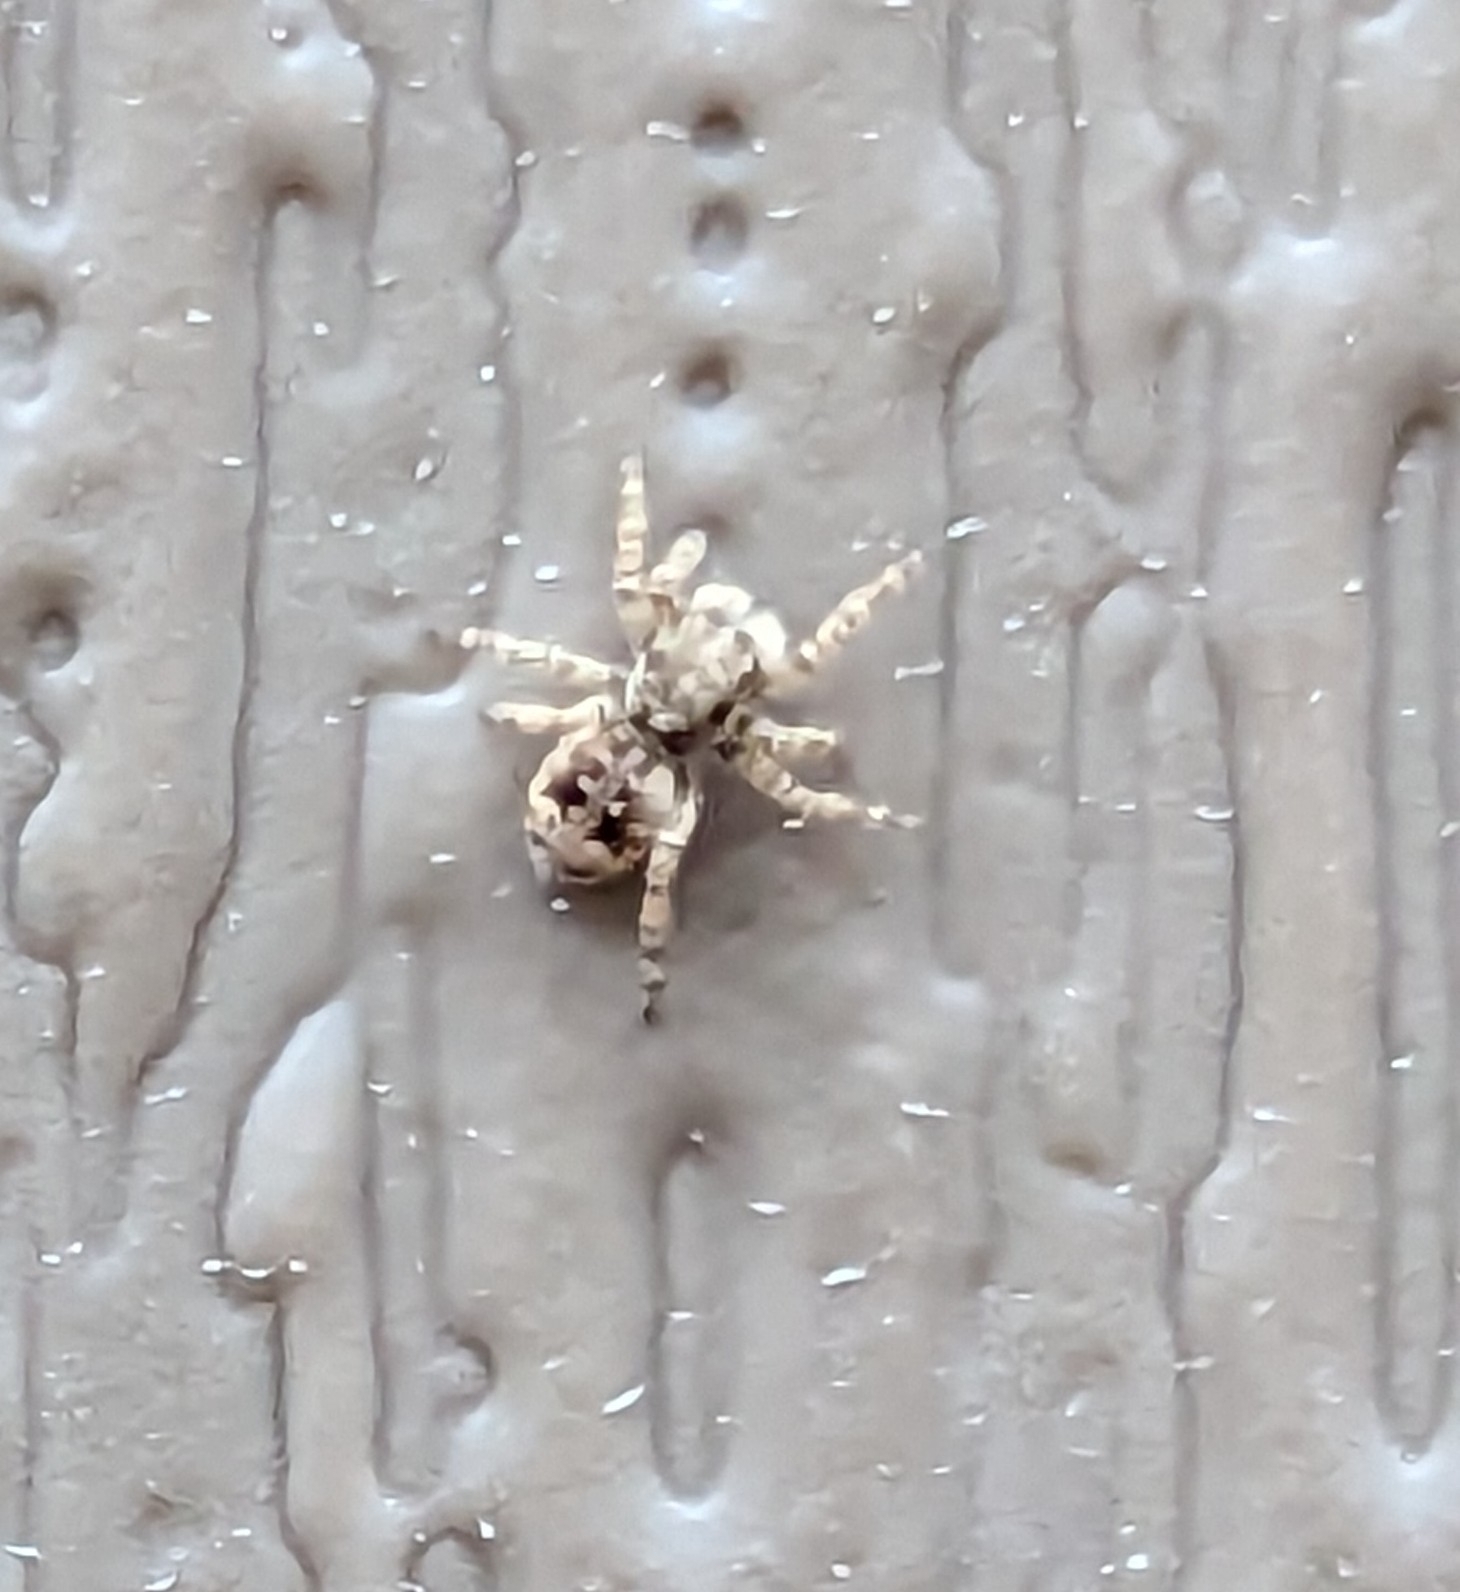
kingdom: Animalia
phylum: Arthropoda
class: Arachnida
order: Araneae
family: Salticidae
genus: Attulus
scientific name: Attulus fasciger
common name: Asiatic wall jumping spider
